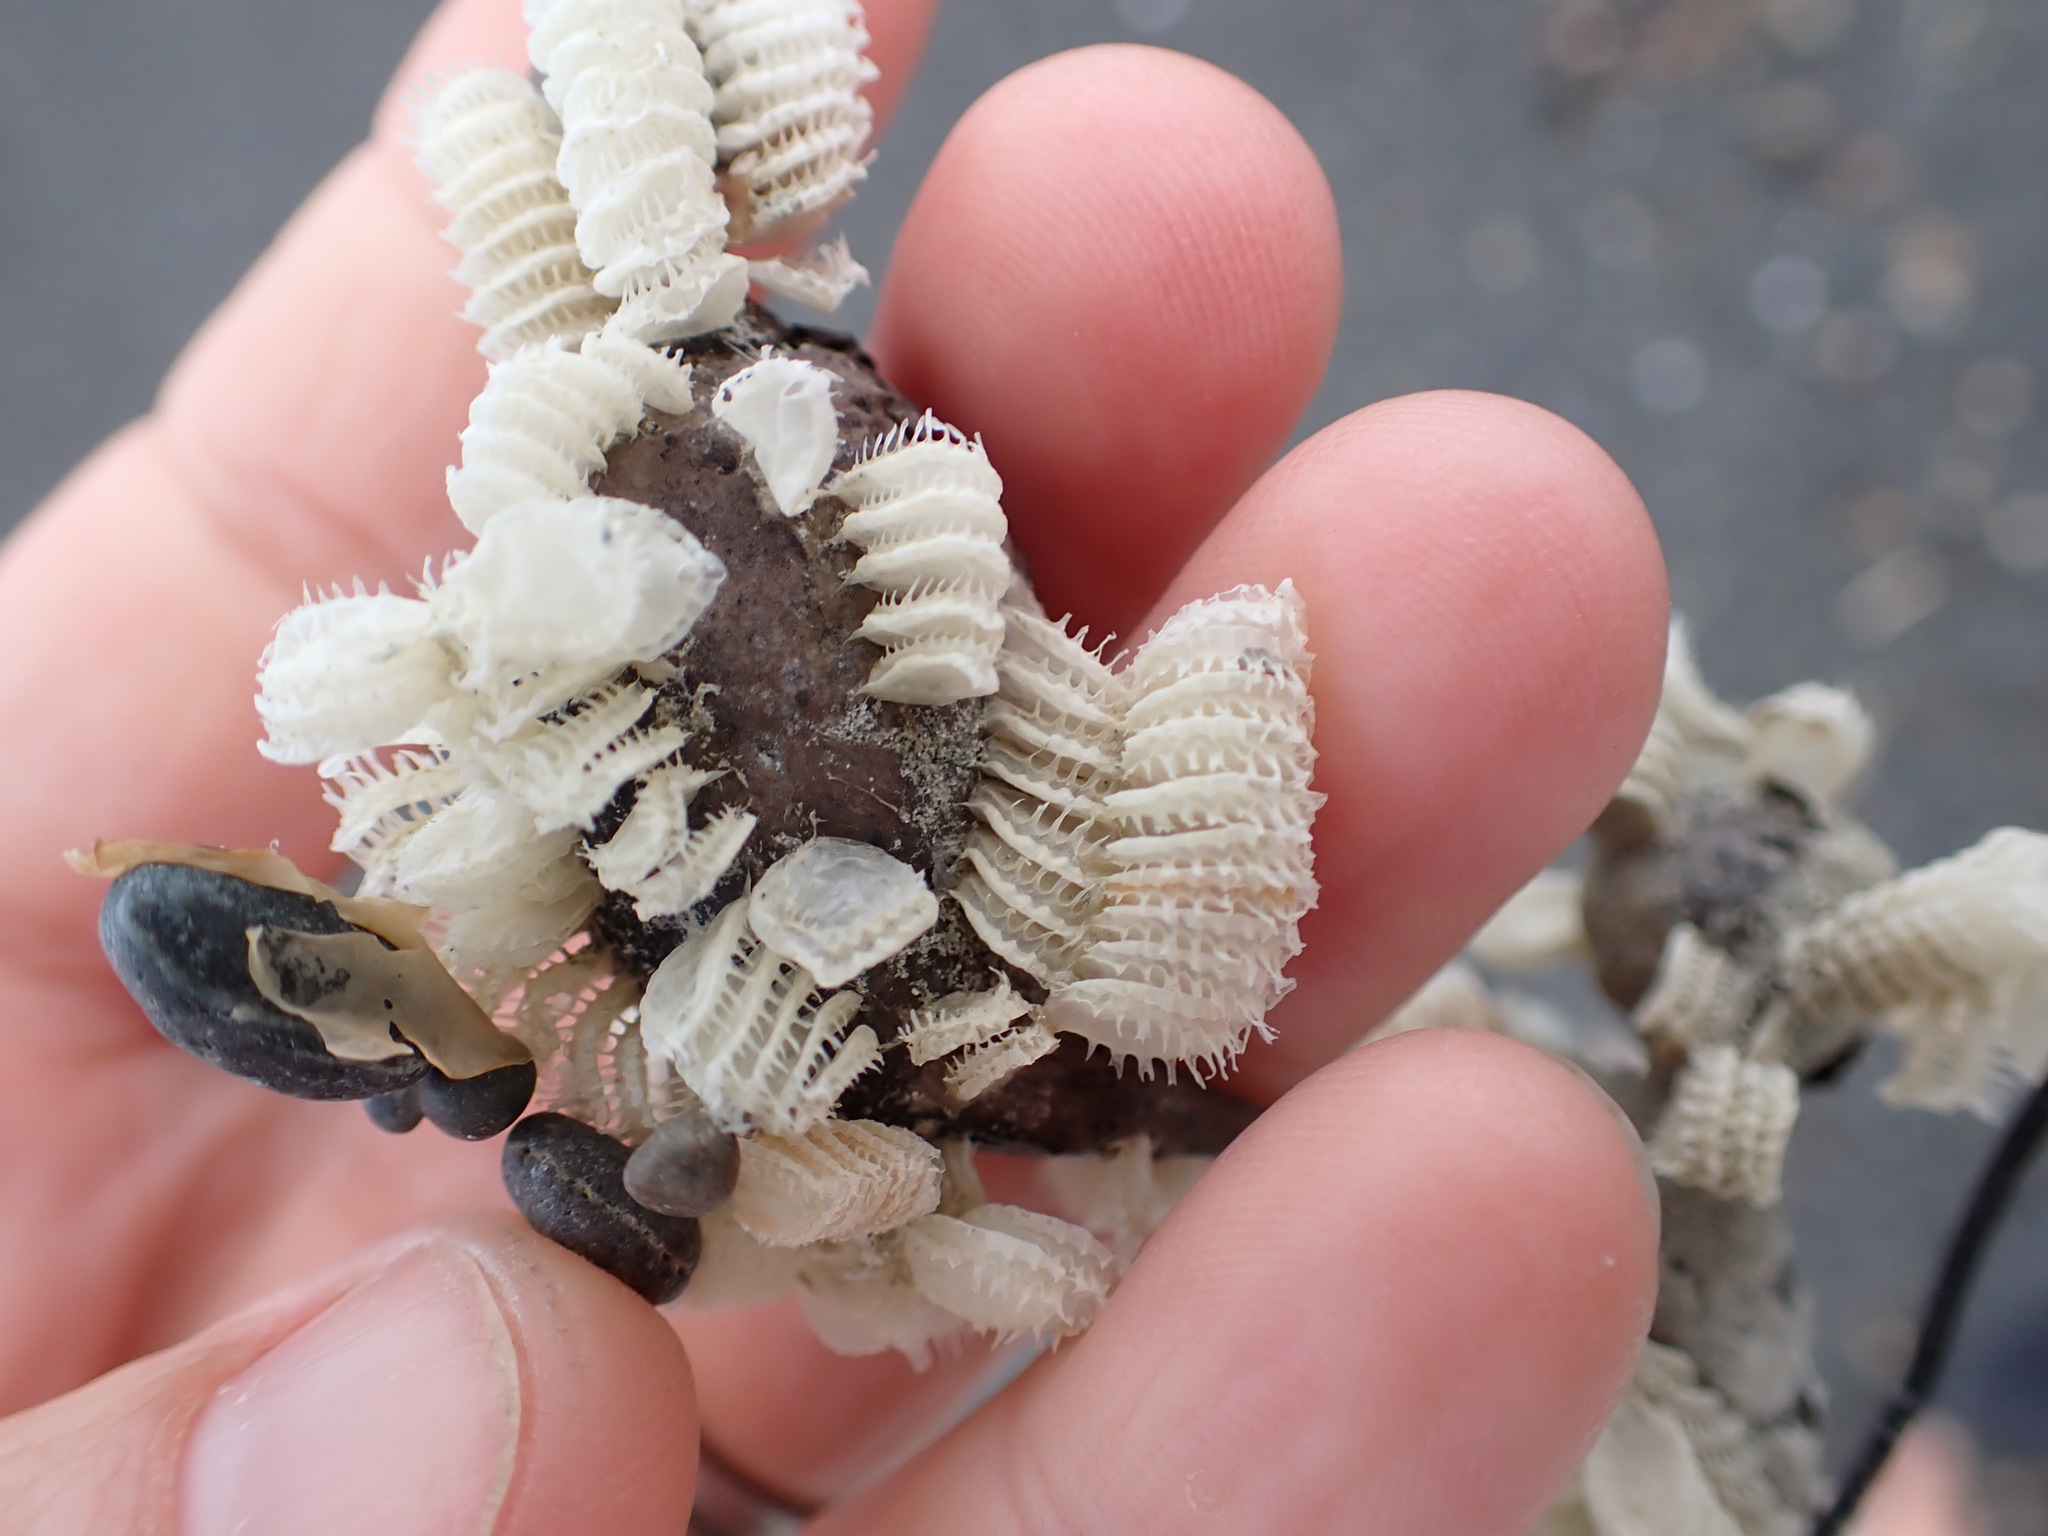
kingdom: Animalia
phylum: Mollusca
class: Gastropoda
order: Neogastropoda
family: Muricidae
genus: Poirieria
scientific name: Poirieria zelandica
